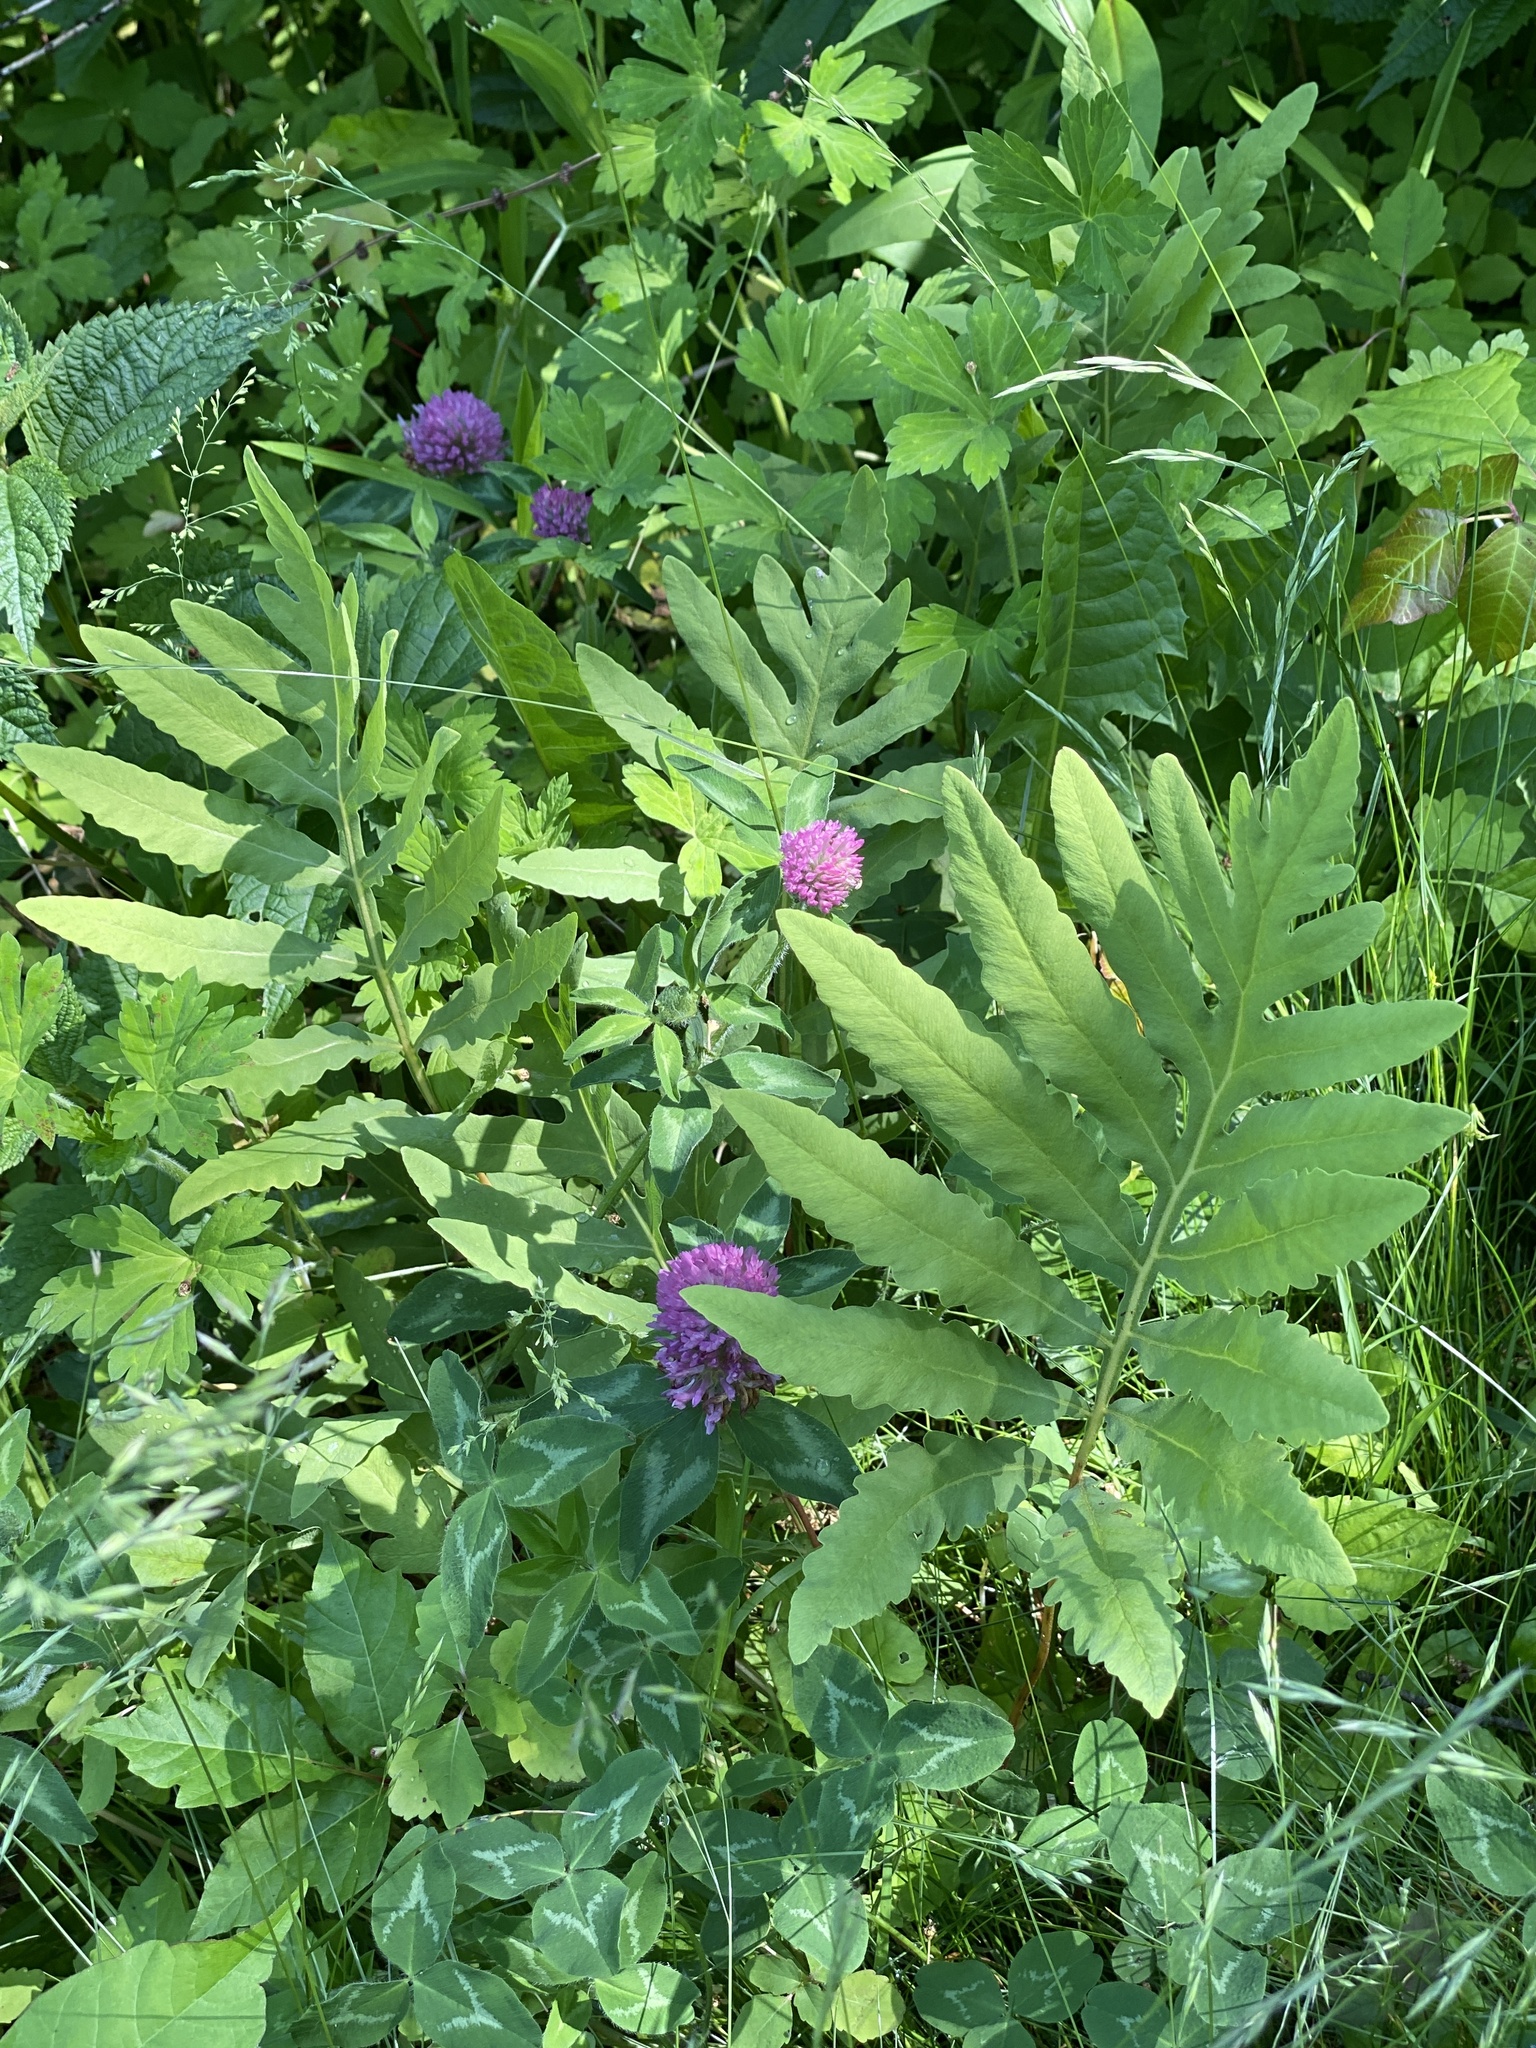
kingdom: Plantae
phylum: Tracheophyta
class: Polypodiopsida
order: Polypodiales
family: Onocleaceae
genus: Onoclea
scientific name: Onoclea sensibilis
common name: Sensitive fern
